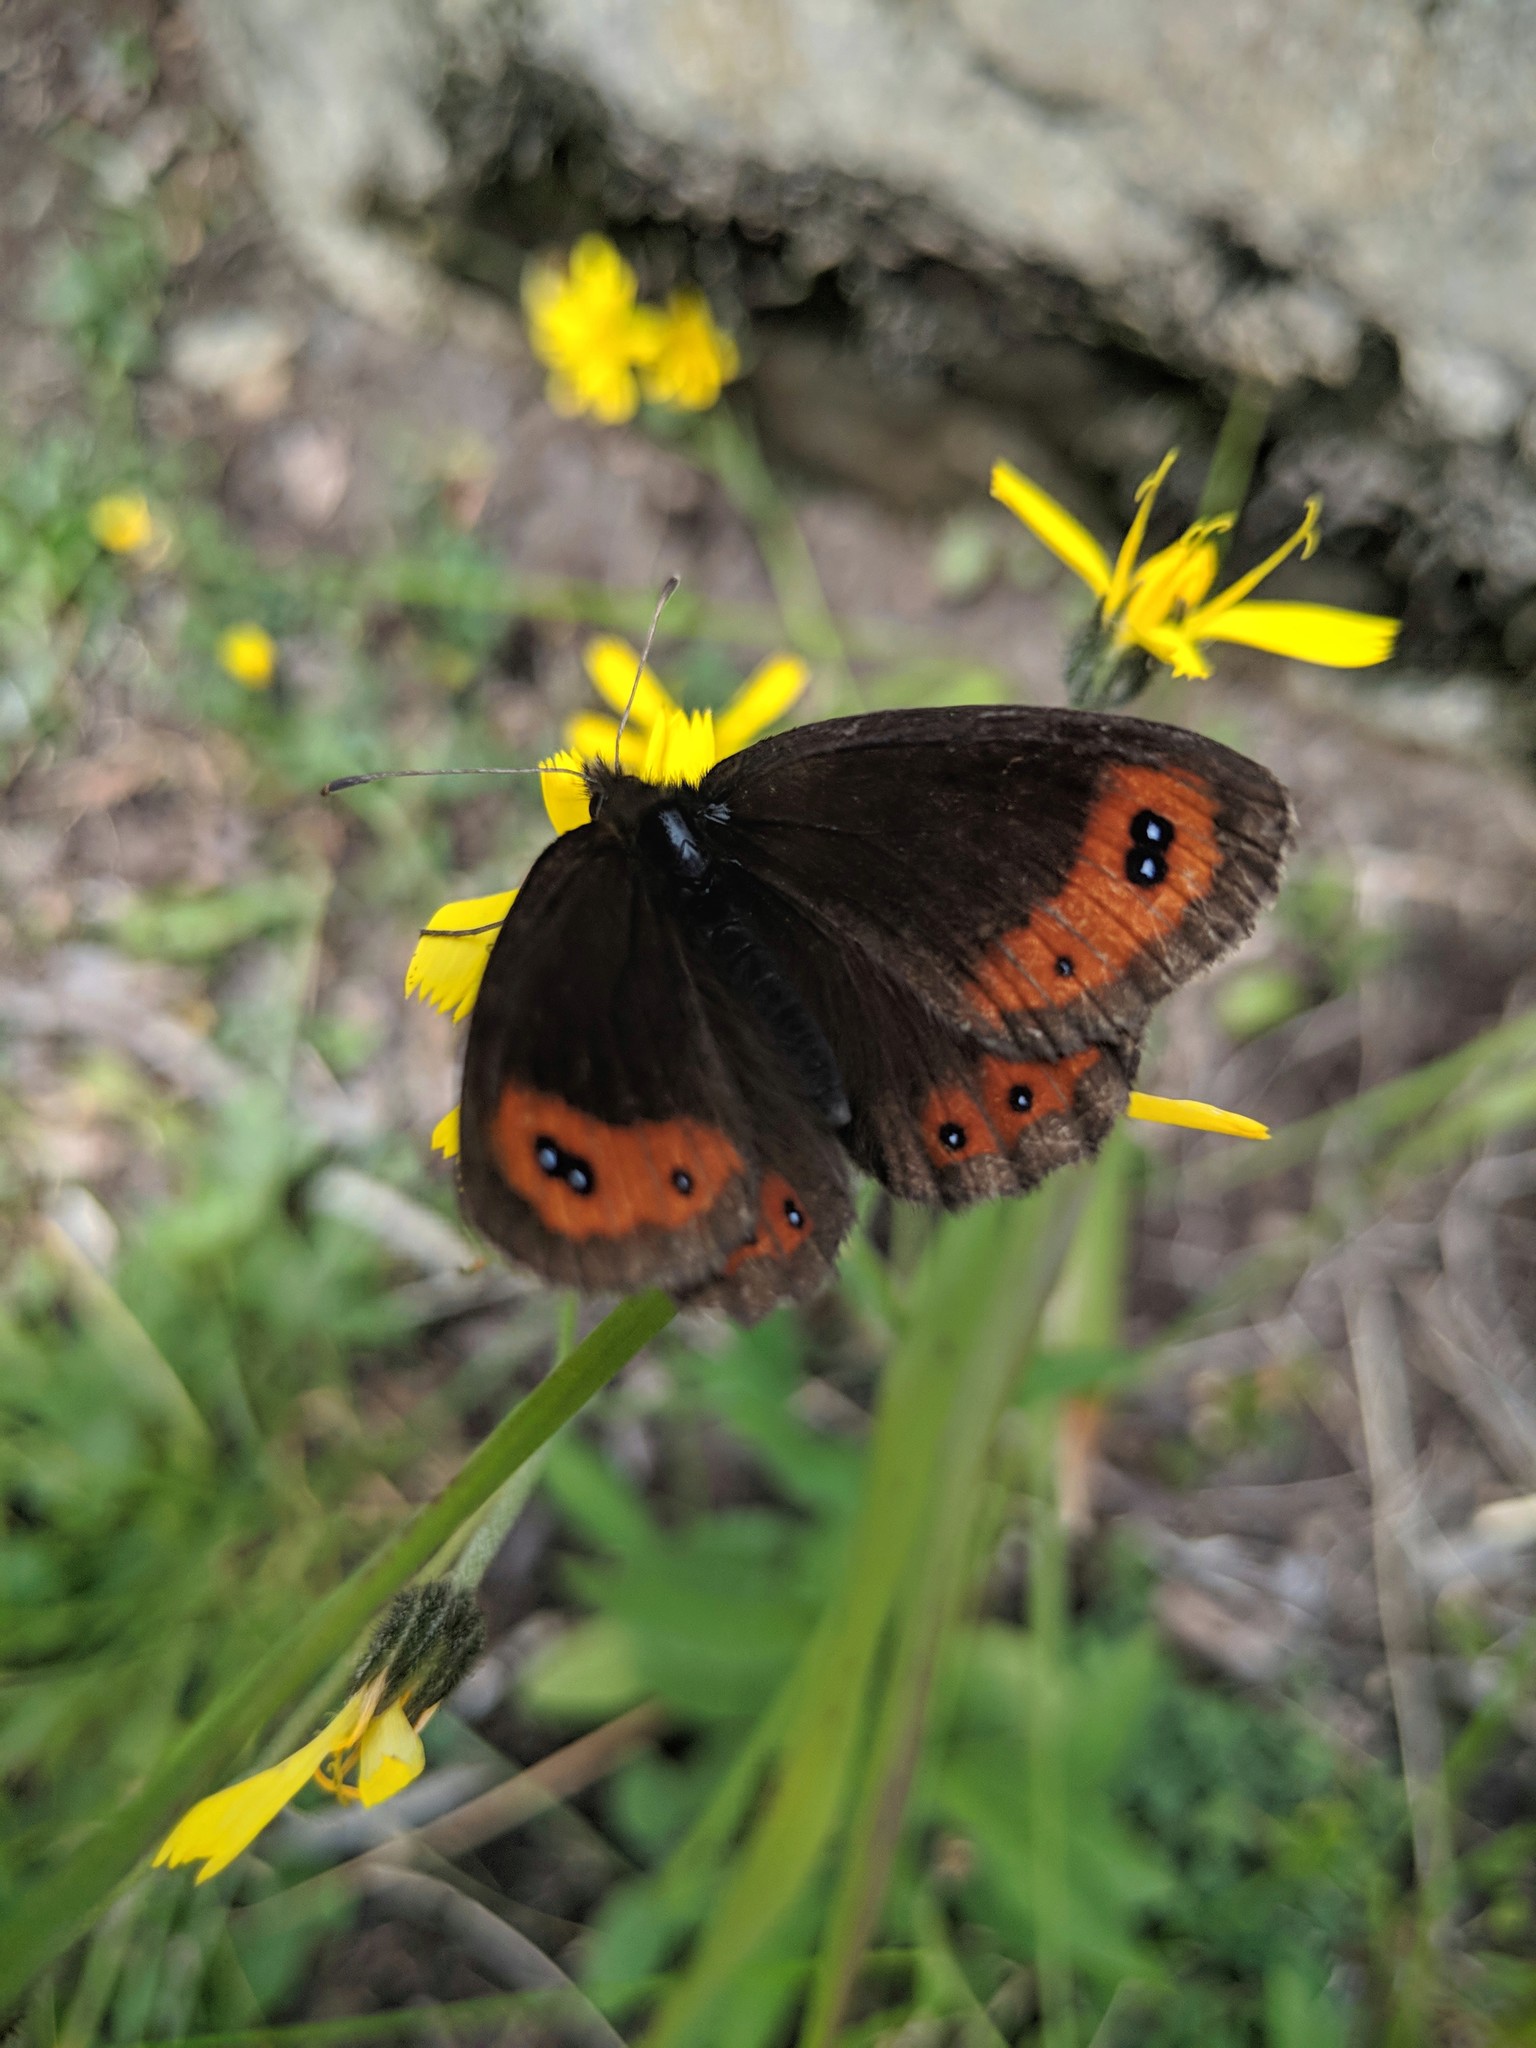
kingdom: Animalia
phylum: Arthropoda
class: Insecta
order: Lepidoptera
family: Nymphalidae
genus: Erebia
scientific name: Erebia montanus
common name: Marbled ringlet
